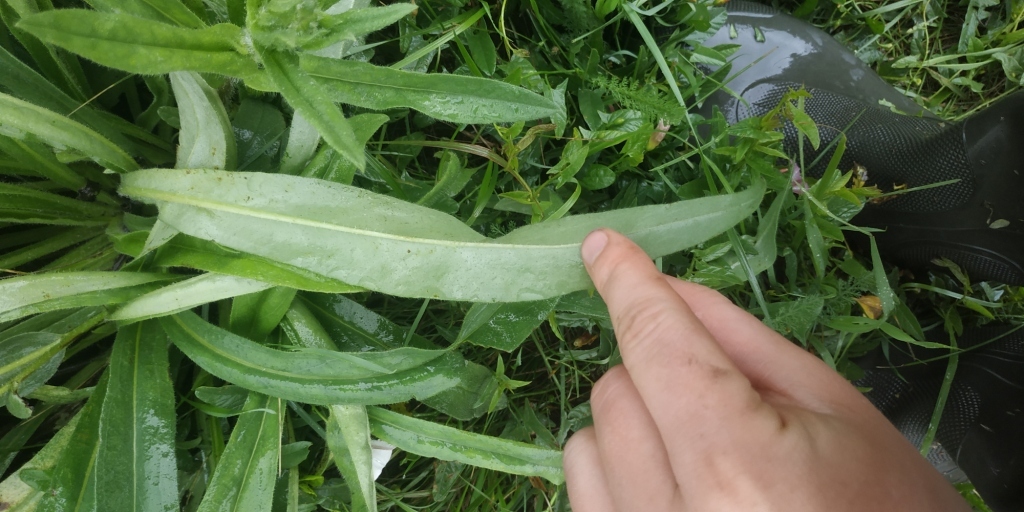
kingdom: Plantae
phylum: Tracheophyta
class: Magnoliopsida
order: Boraginales
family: Boraginaceae
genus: Nonea
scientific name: Nonea pulla
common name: Brown nonea
